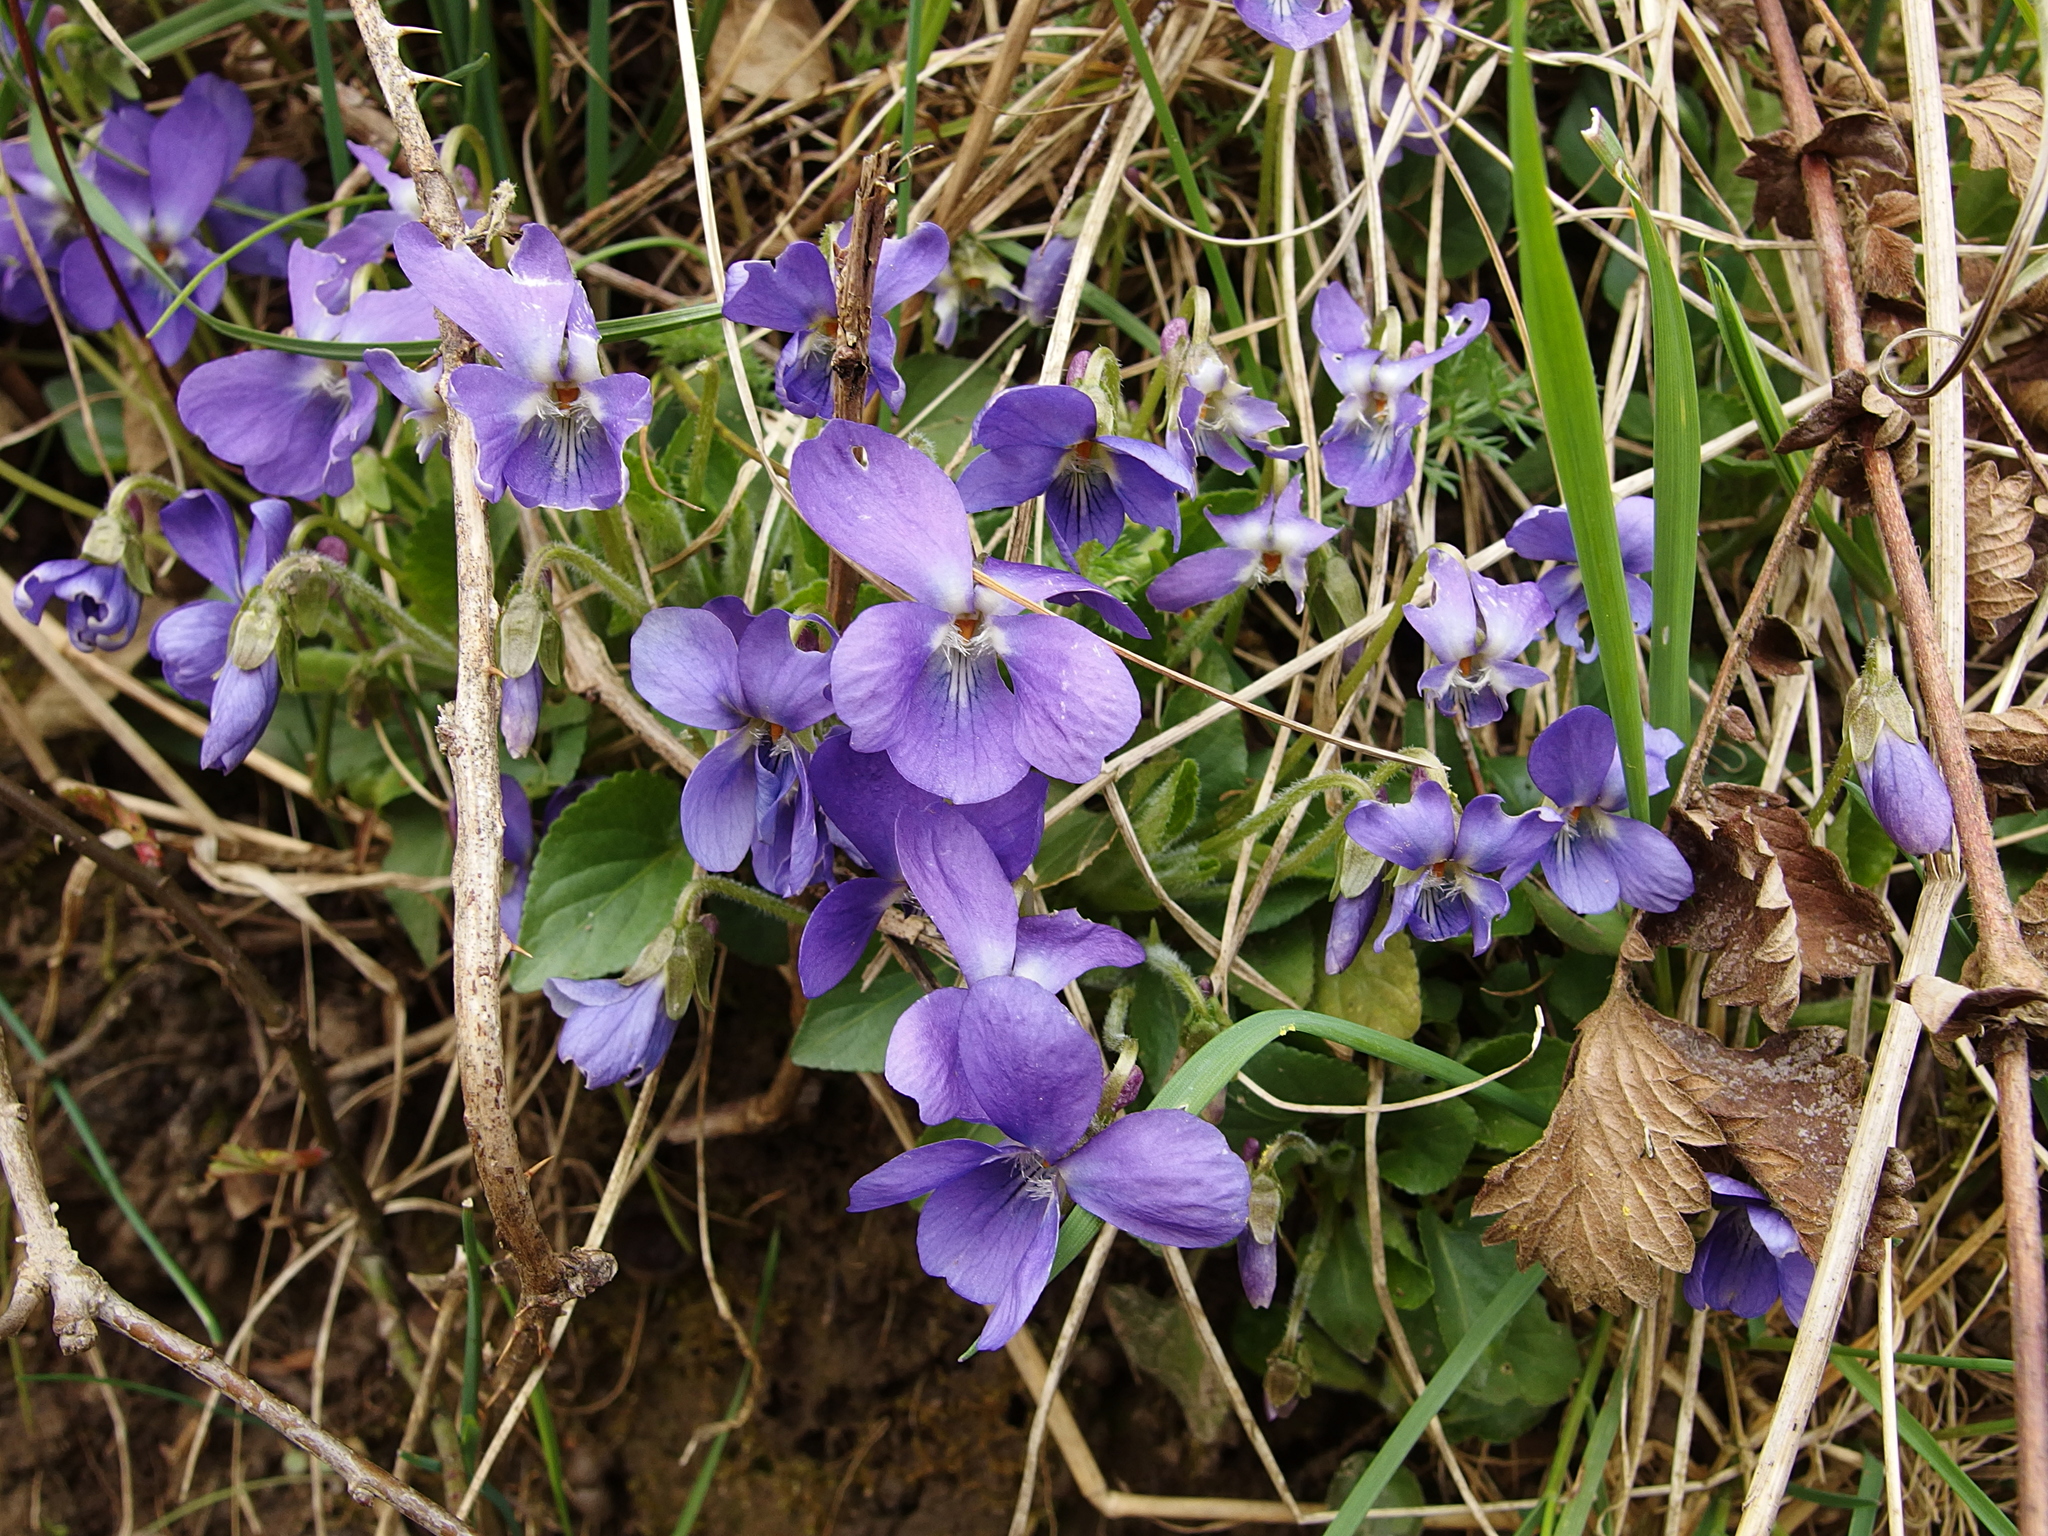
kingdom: Plantae
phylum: Tracheophyta
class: Magnoliopsida
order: Malpighiales
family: Violaceae
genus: Viola
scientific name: Viola hirta
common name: Hairy violet
